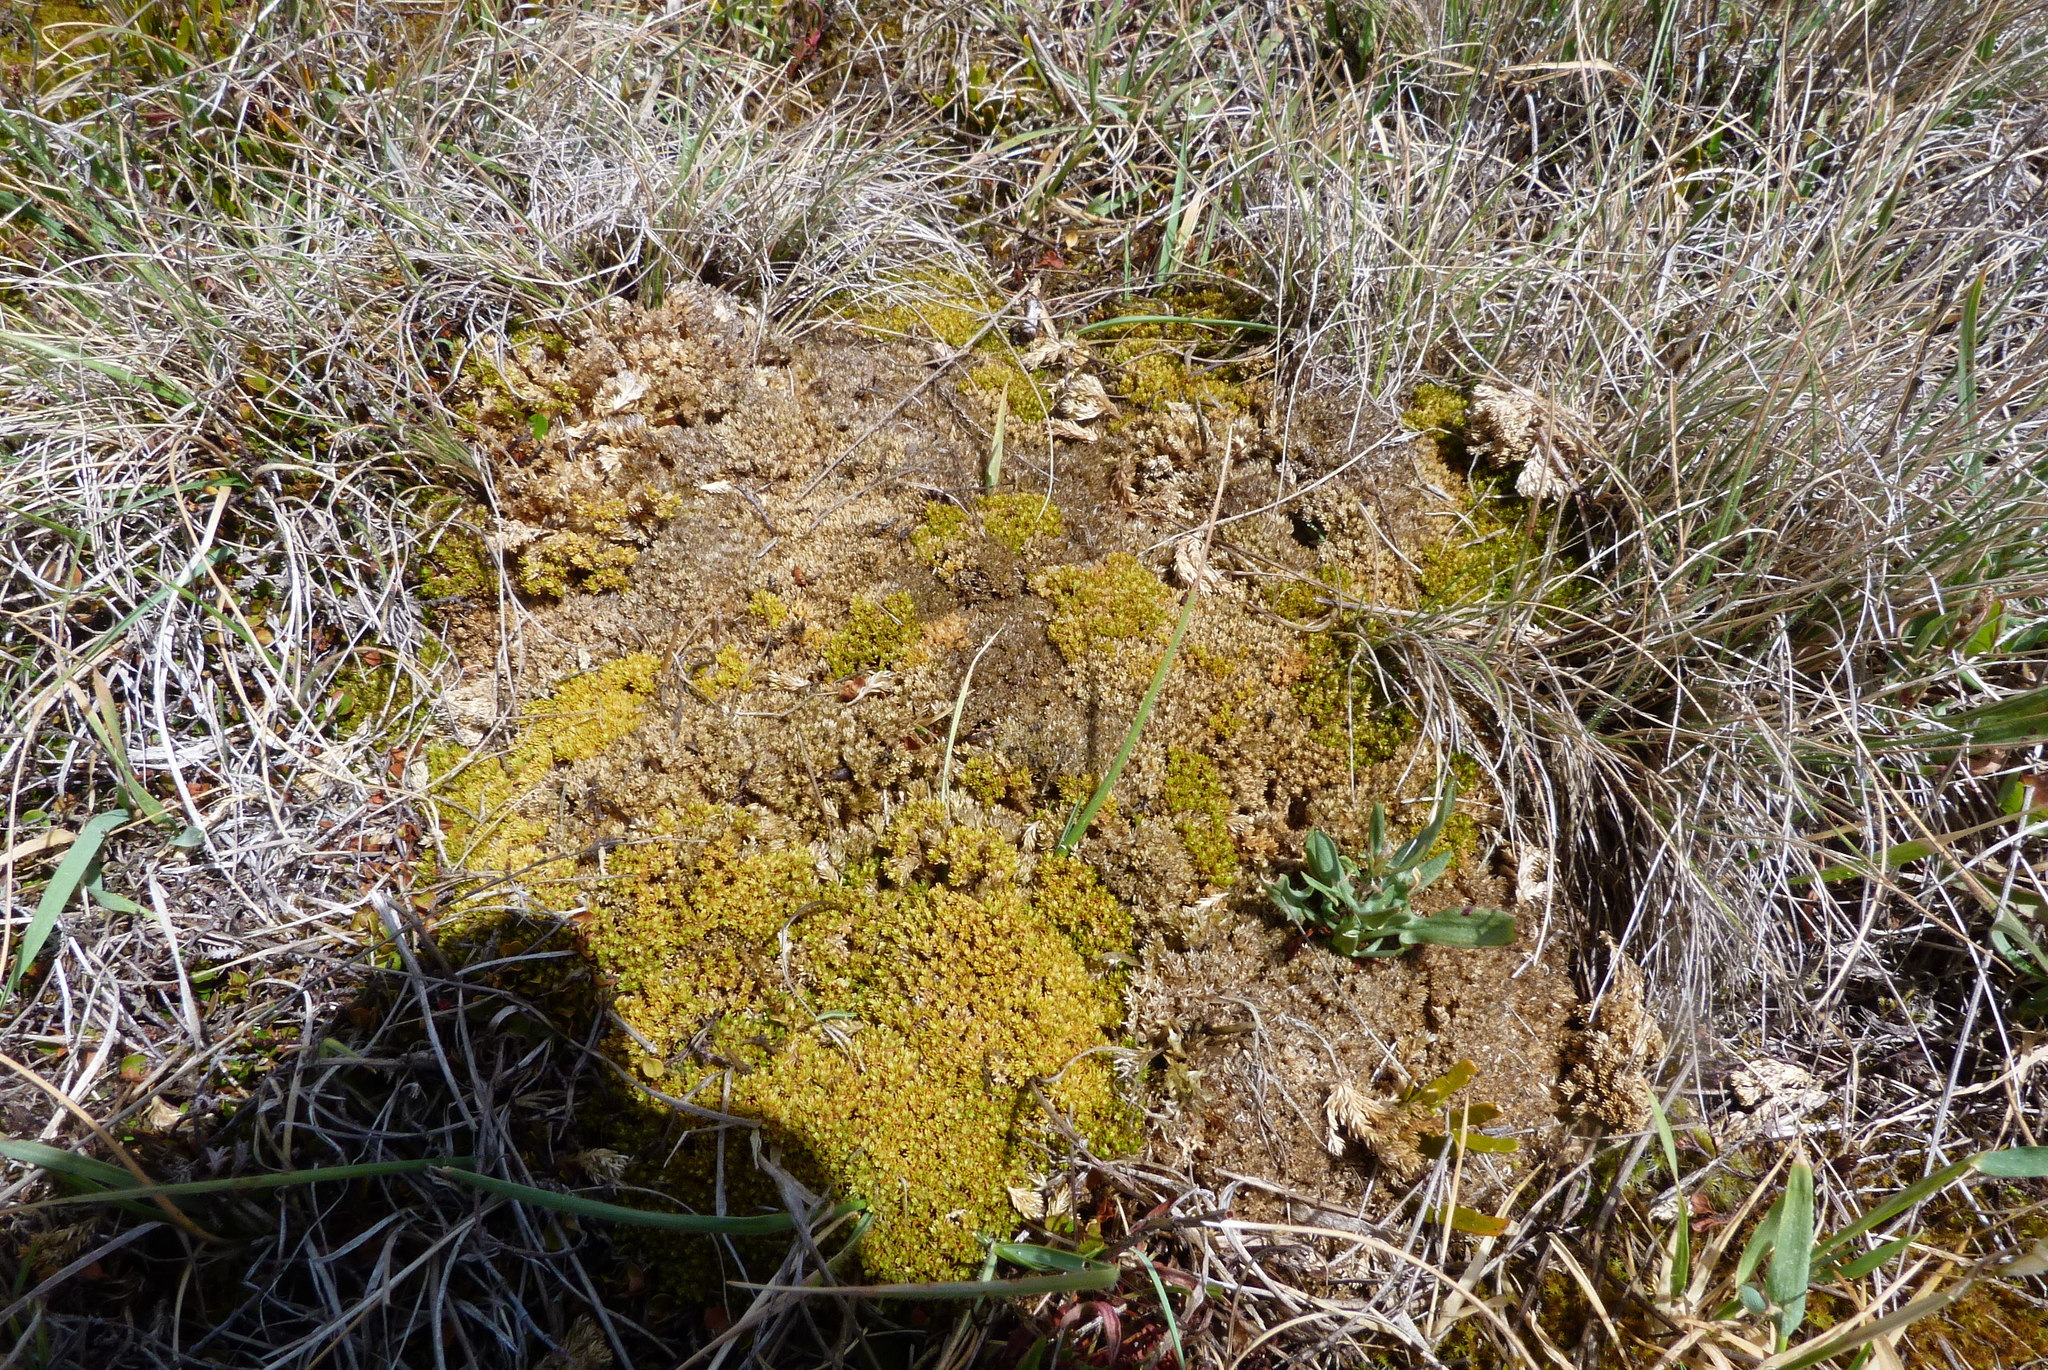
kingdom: Plantae
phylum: Tracheophyta
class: Magnoliopsida
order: Caryophyllales
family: Caryophyllaceae
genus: Scleranthus
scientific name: Scleranthus uniflorus
